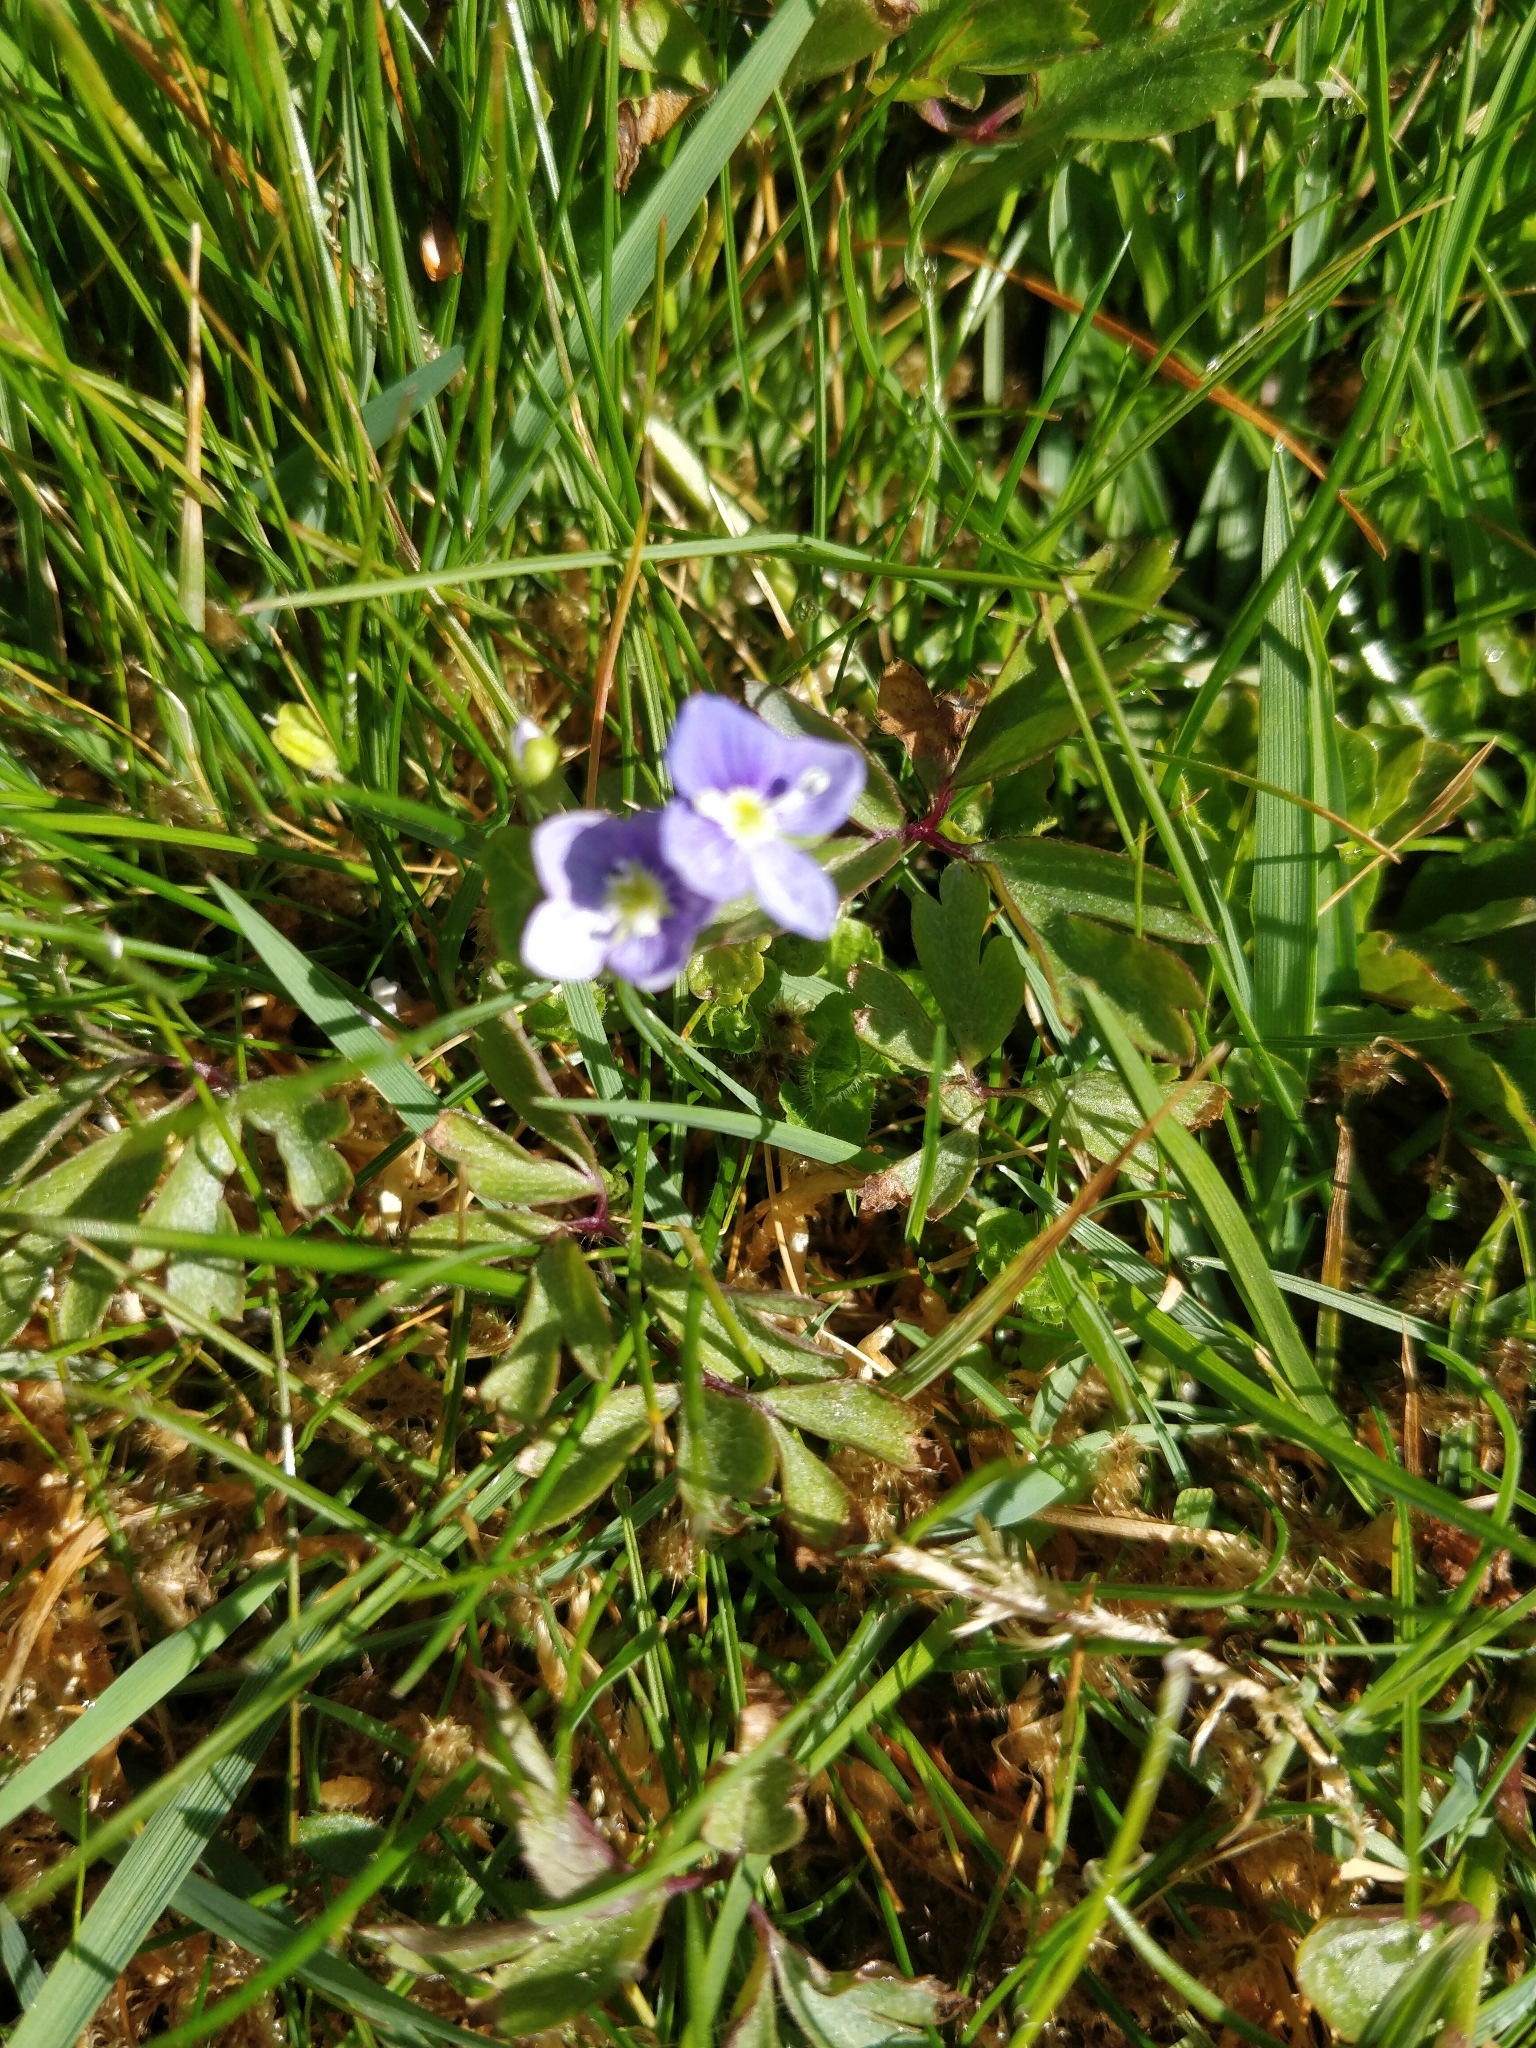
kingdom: Plantae
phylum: Tracheophyta
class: Magnoliopsida
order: Lamiales
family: Plantaginaceae
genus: Veronica
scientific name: Veronica filiformis
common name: Slender speedwell
